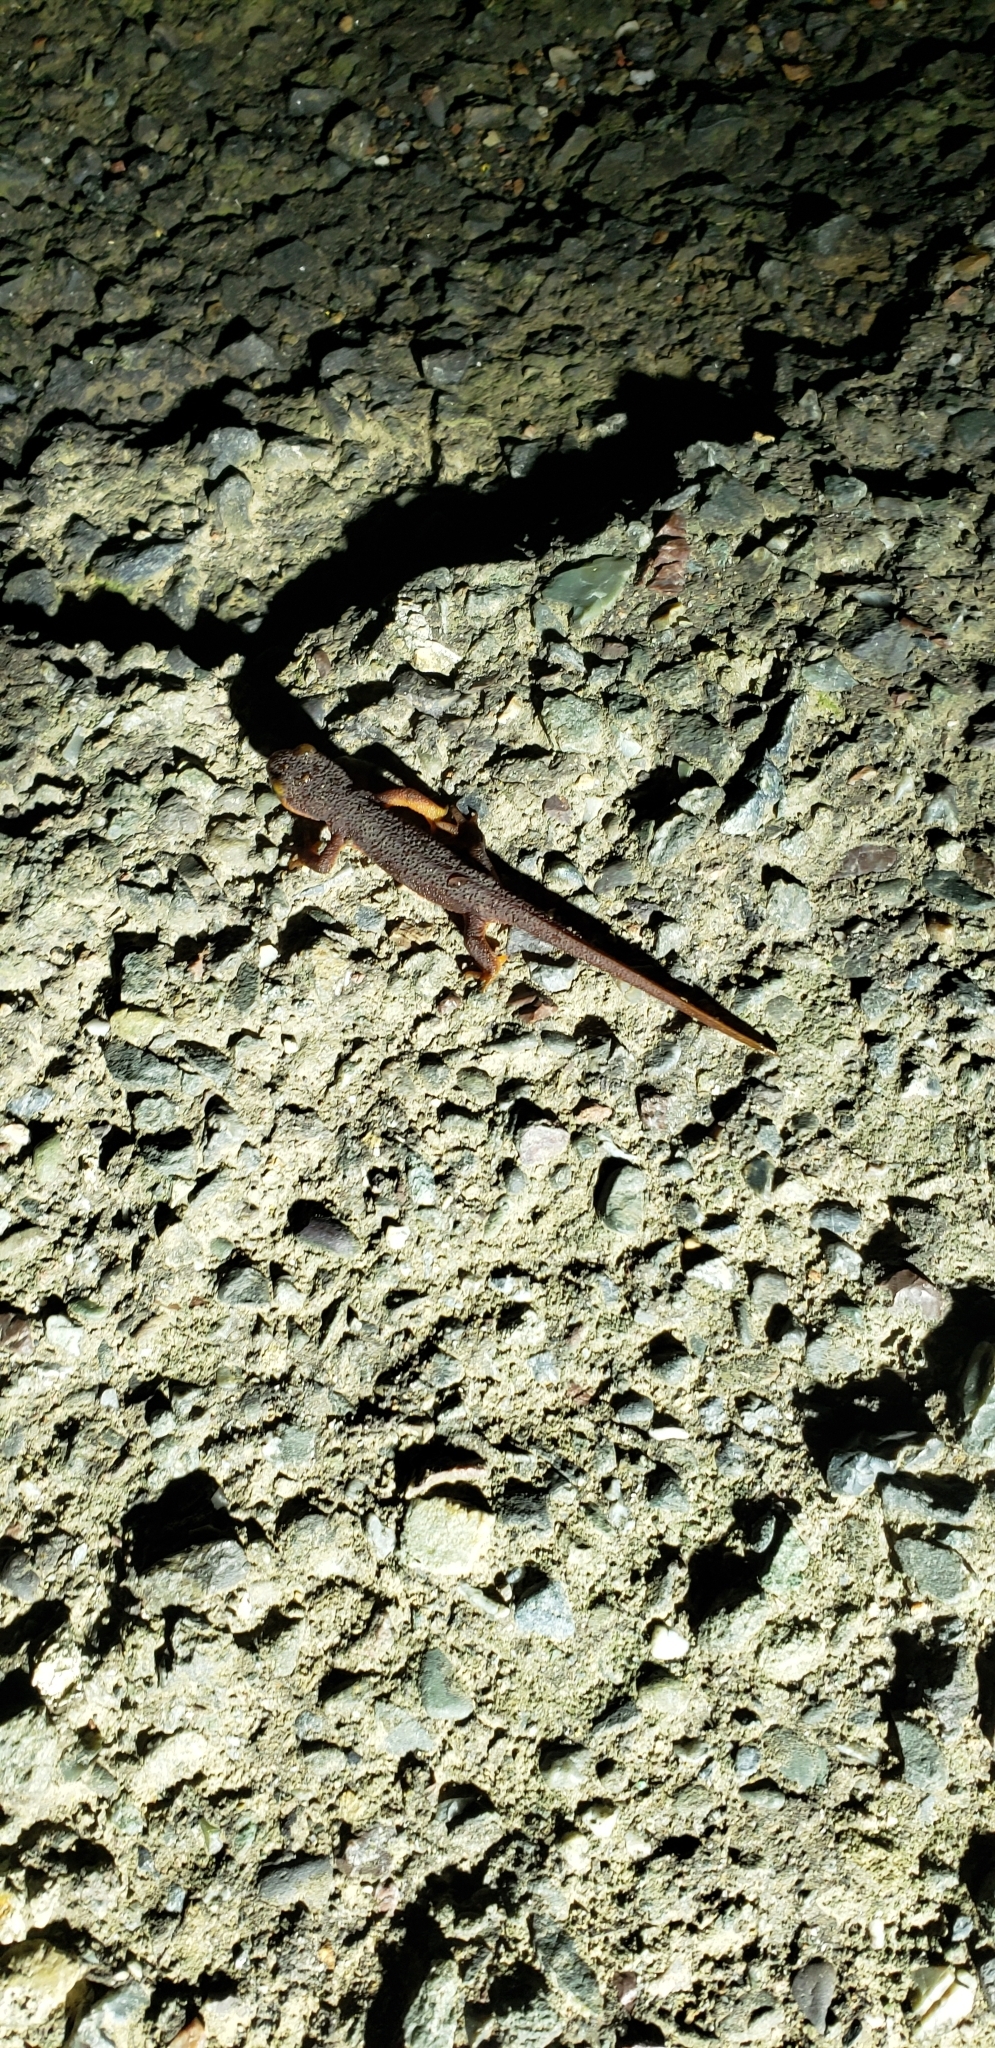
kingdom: Animalia
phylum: Chordata
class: Amphibia
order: Caudata
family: Salamandridae
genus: Taricha
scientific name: Taricha torosa
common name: California newt
